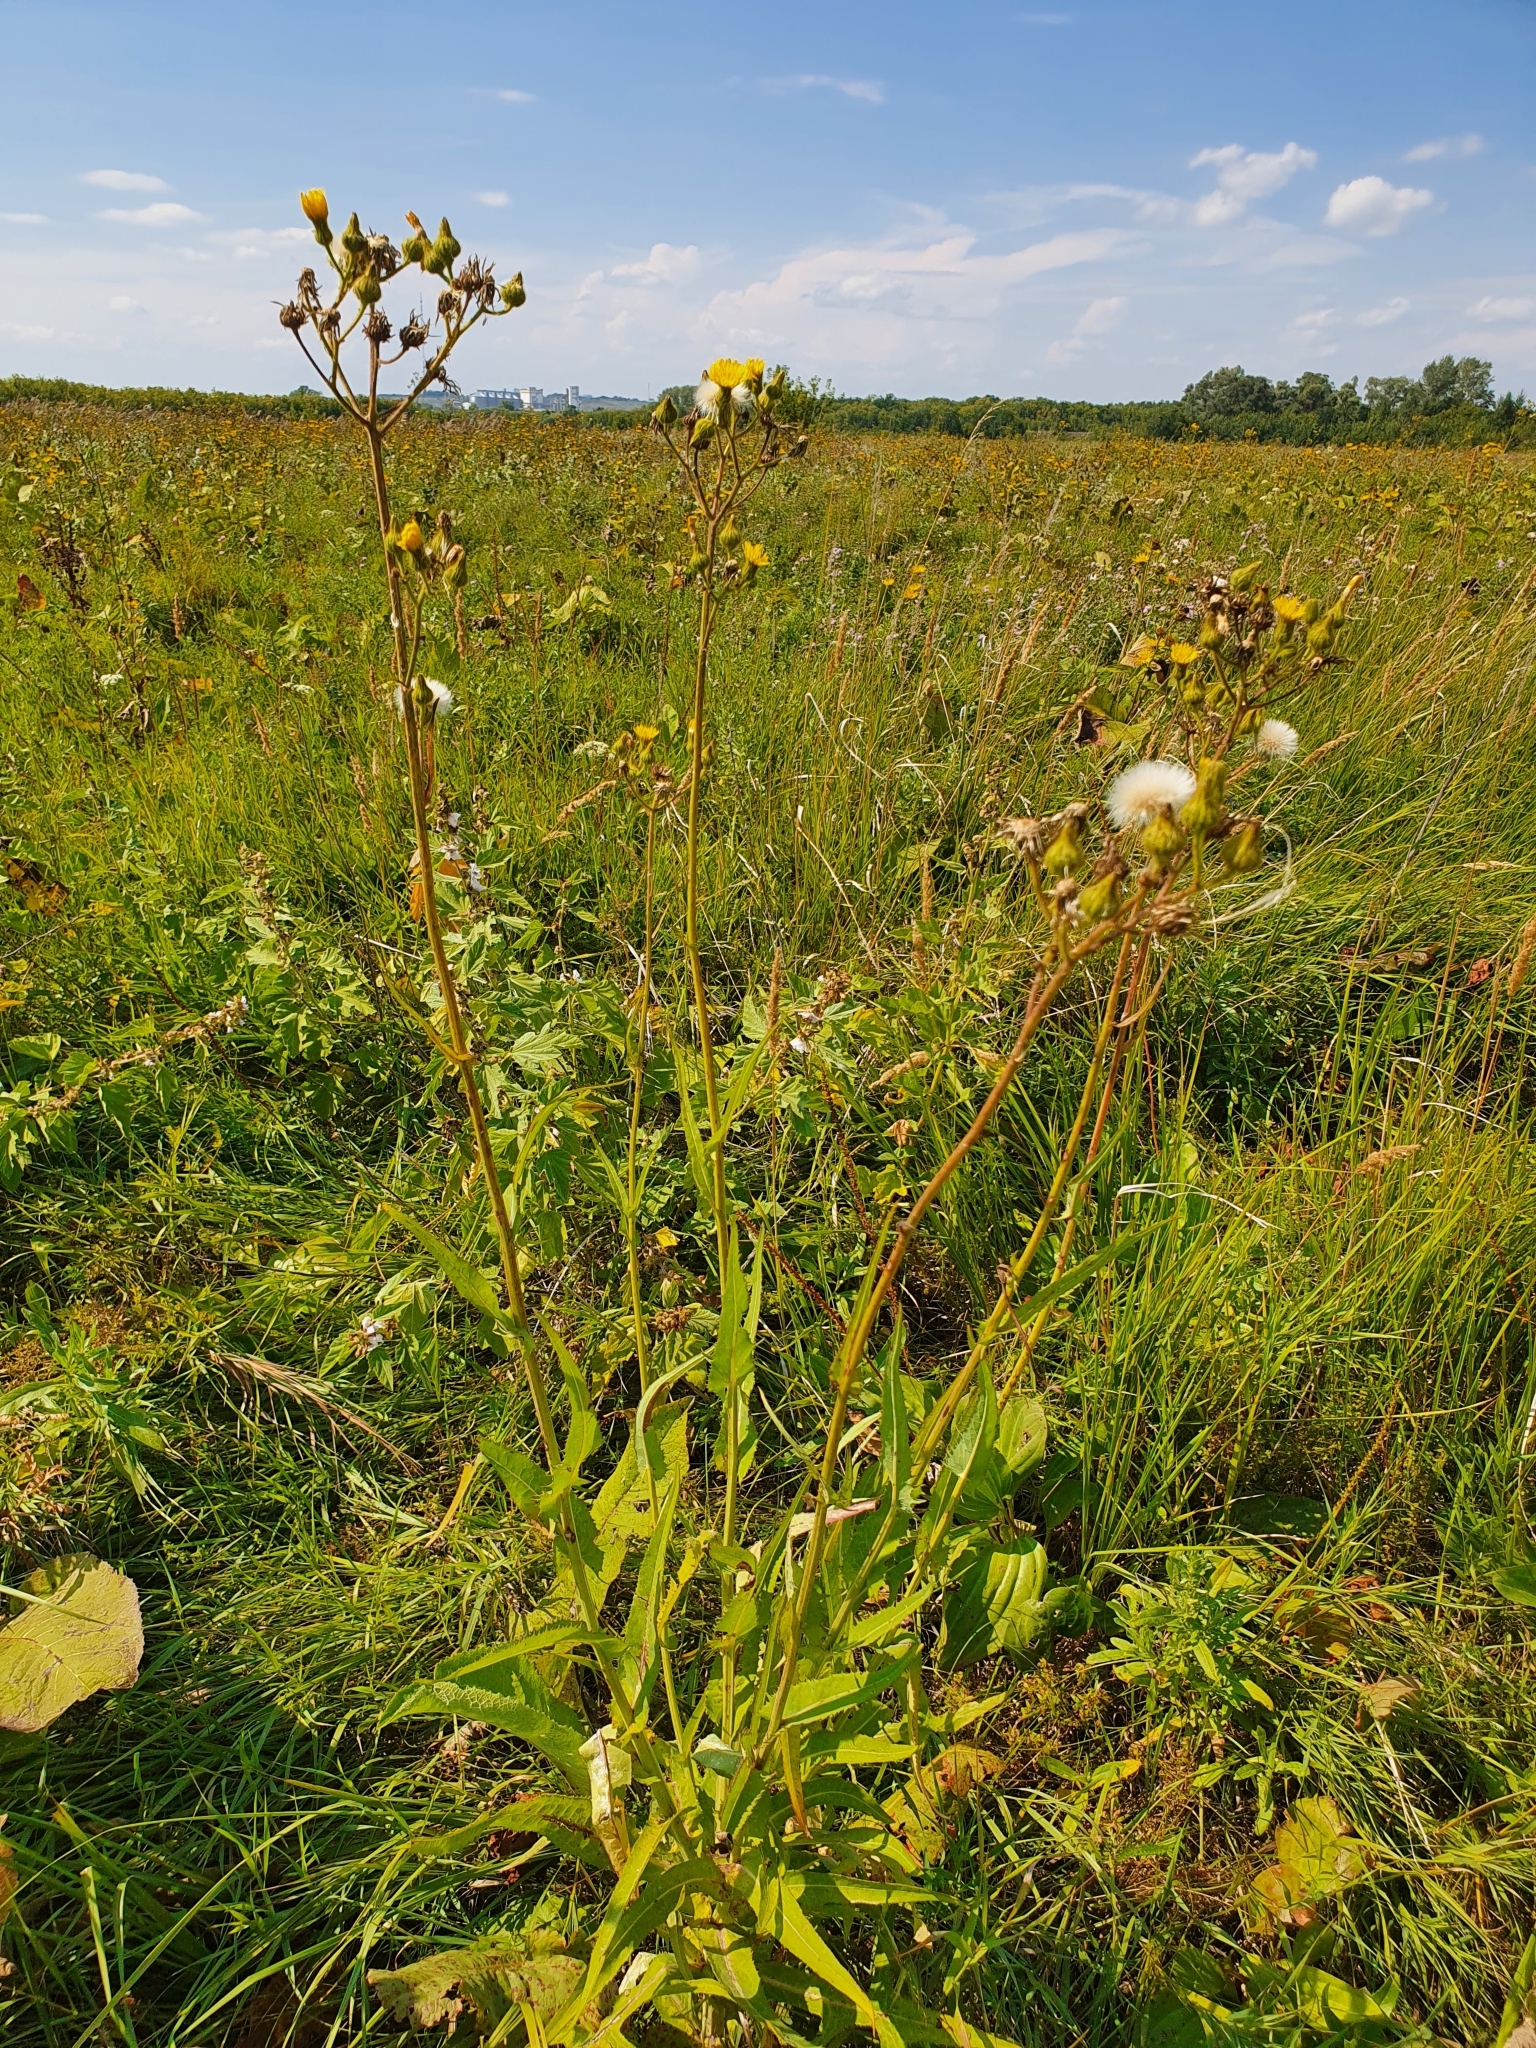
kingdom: Plantae
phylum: Tracheophyta
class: Magnoliopsida
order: Asterales
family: Asteraceae
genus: Sonchus
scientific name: Sonchus palustris
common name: Marsh sow-thistle
